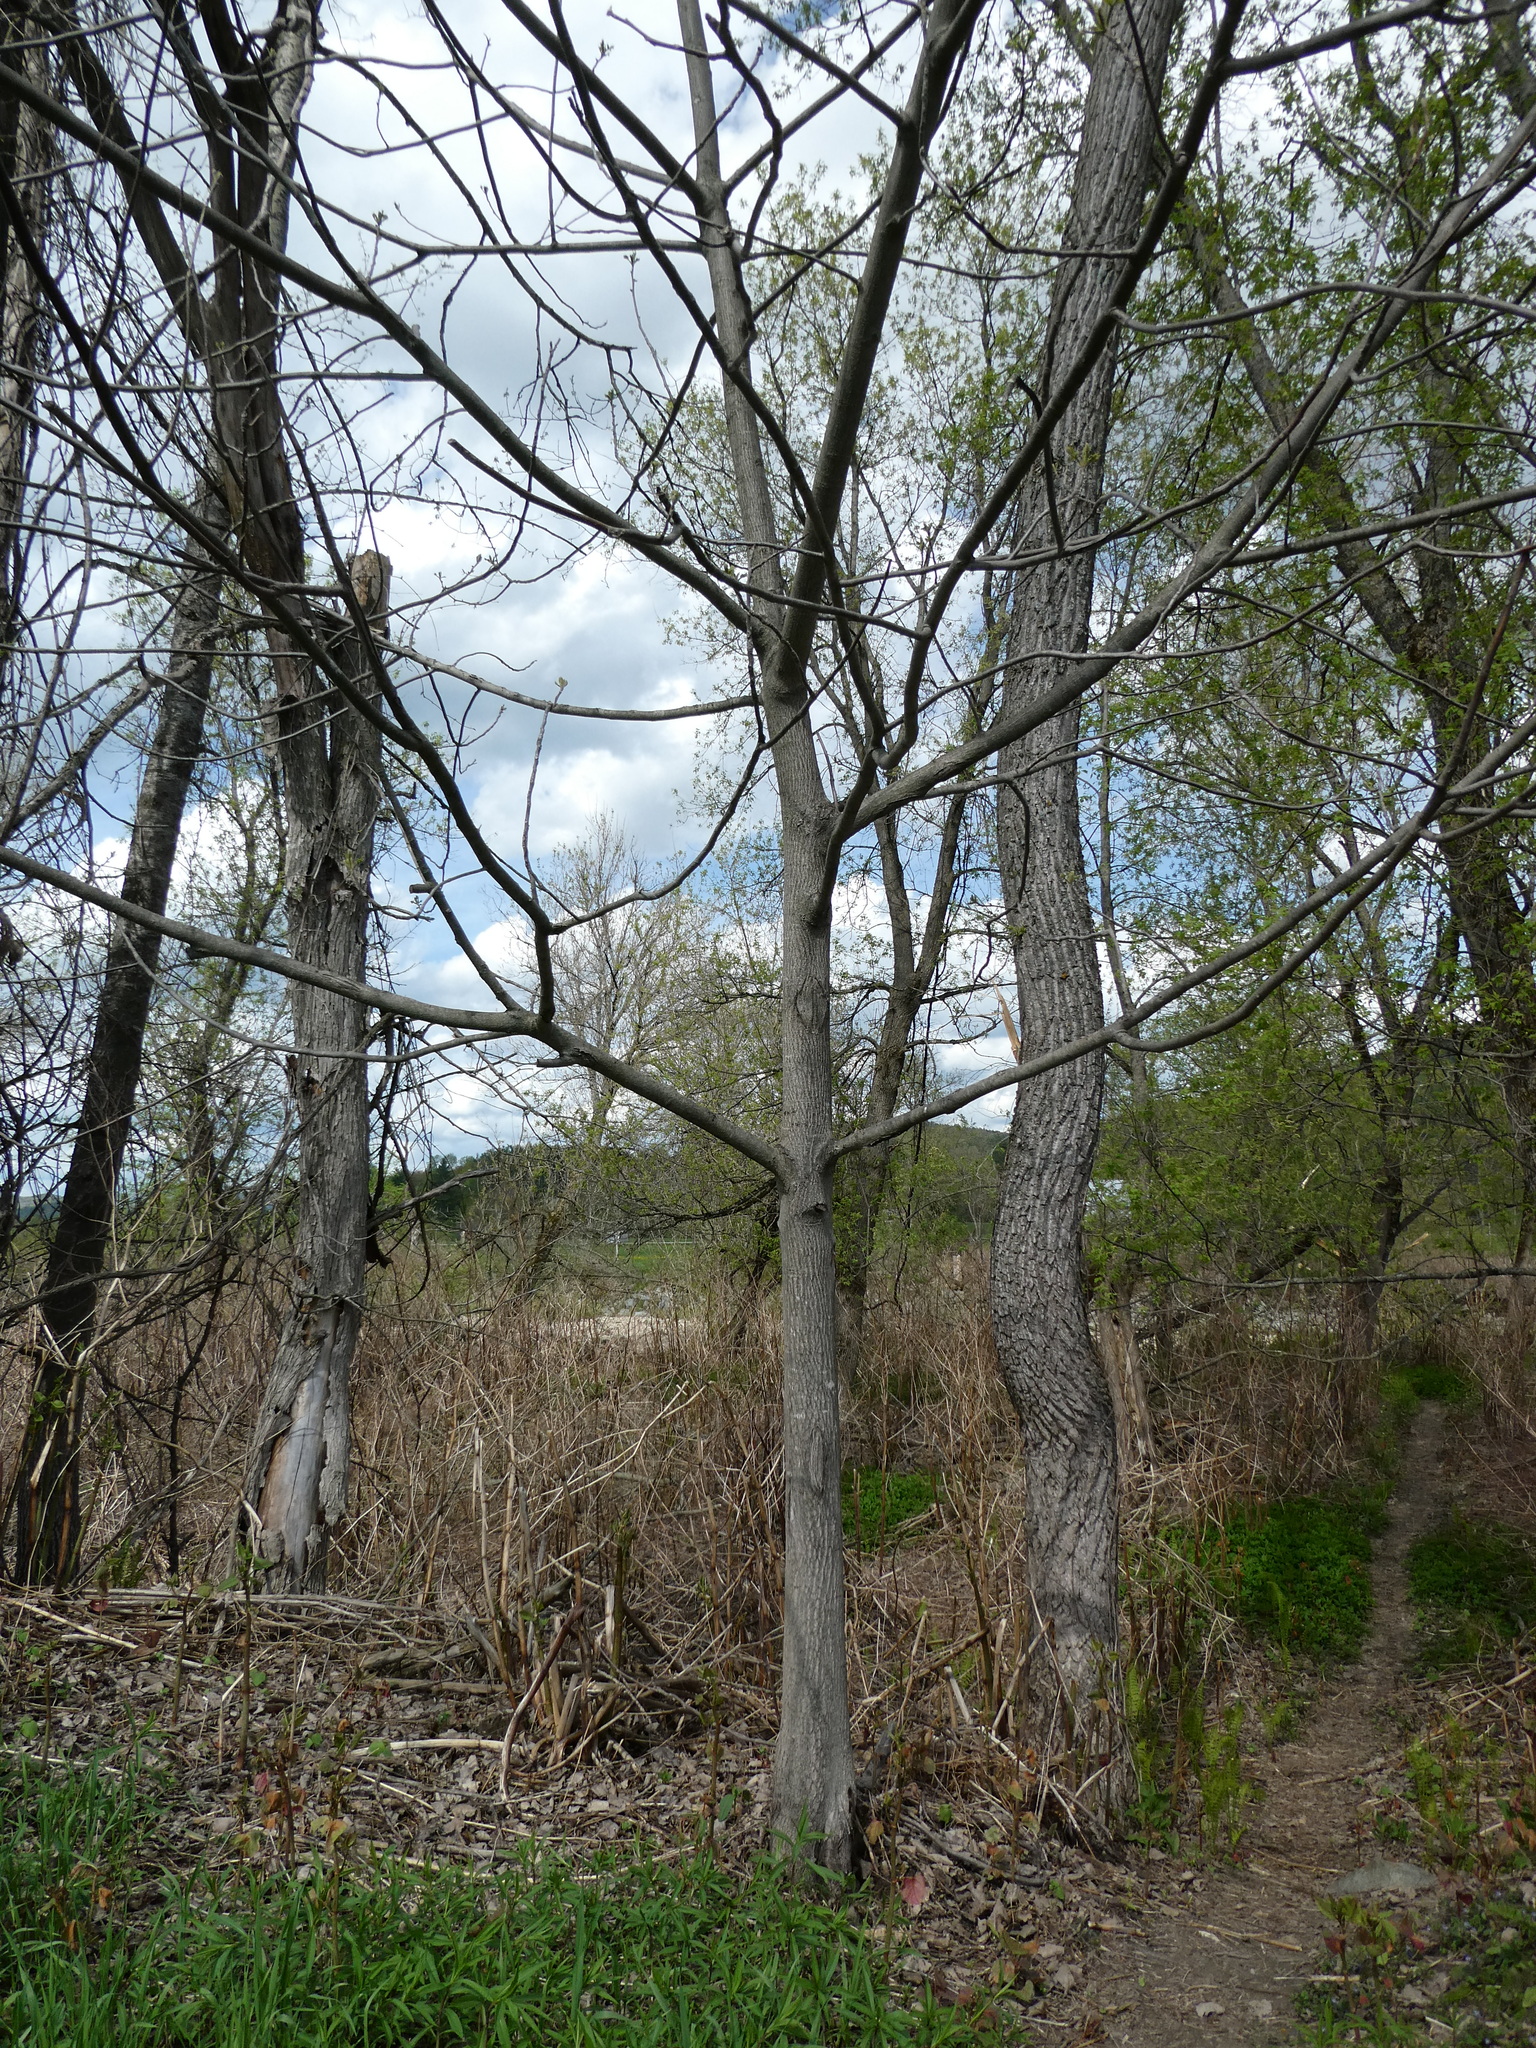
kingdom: Plantae
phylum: Tracheophyta
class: Magnoliopsida
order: Fagales
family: Juglandaceae
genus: Juglans
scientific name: Juglans cinerea
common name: Butternut
